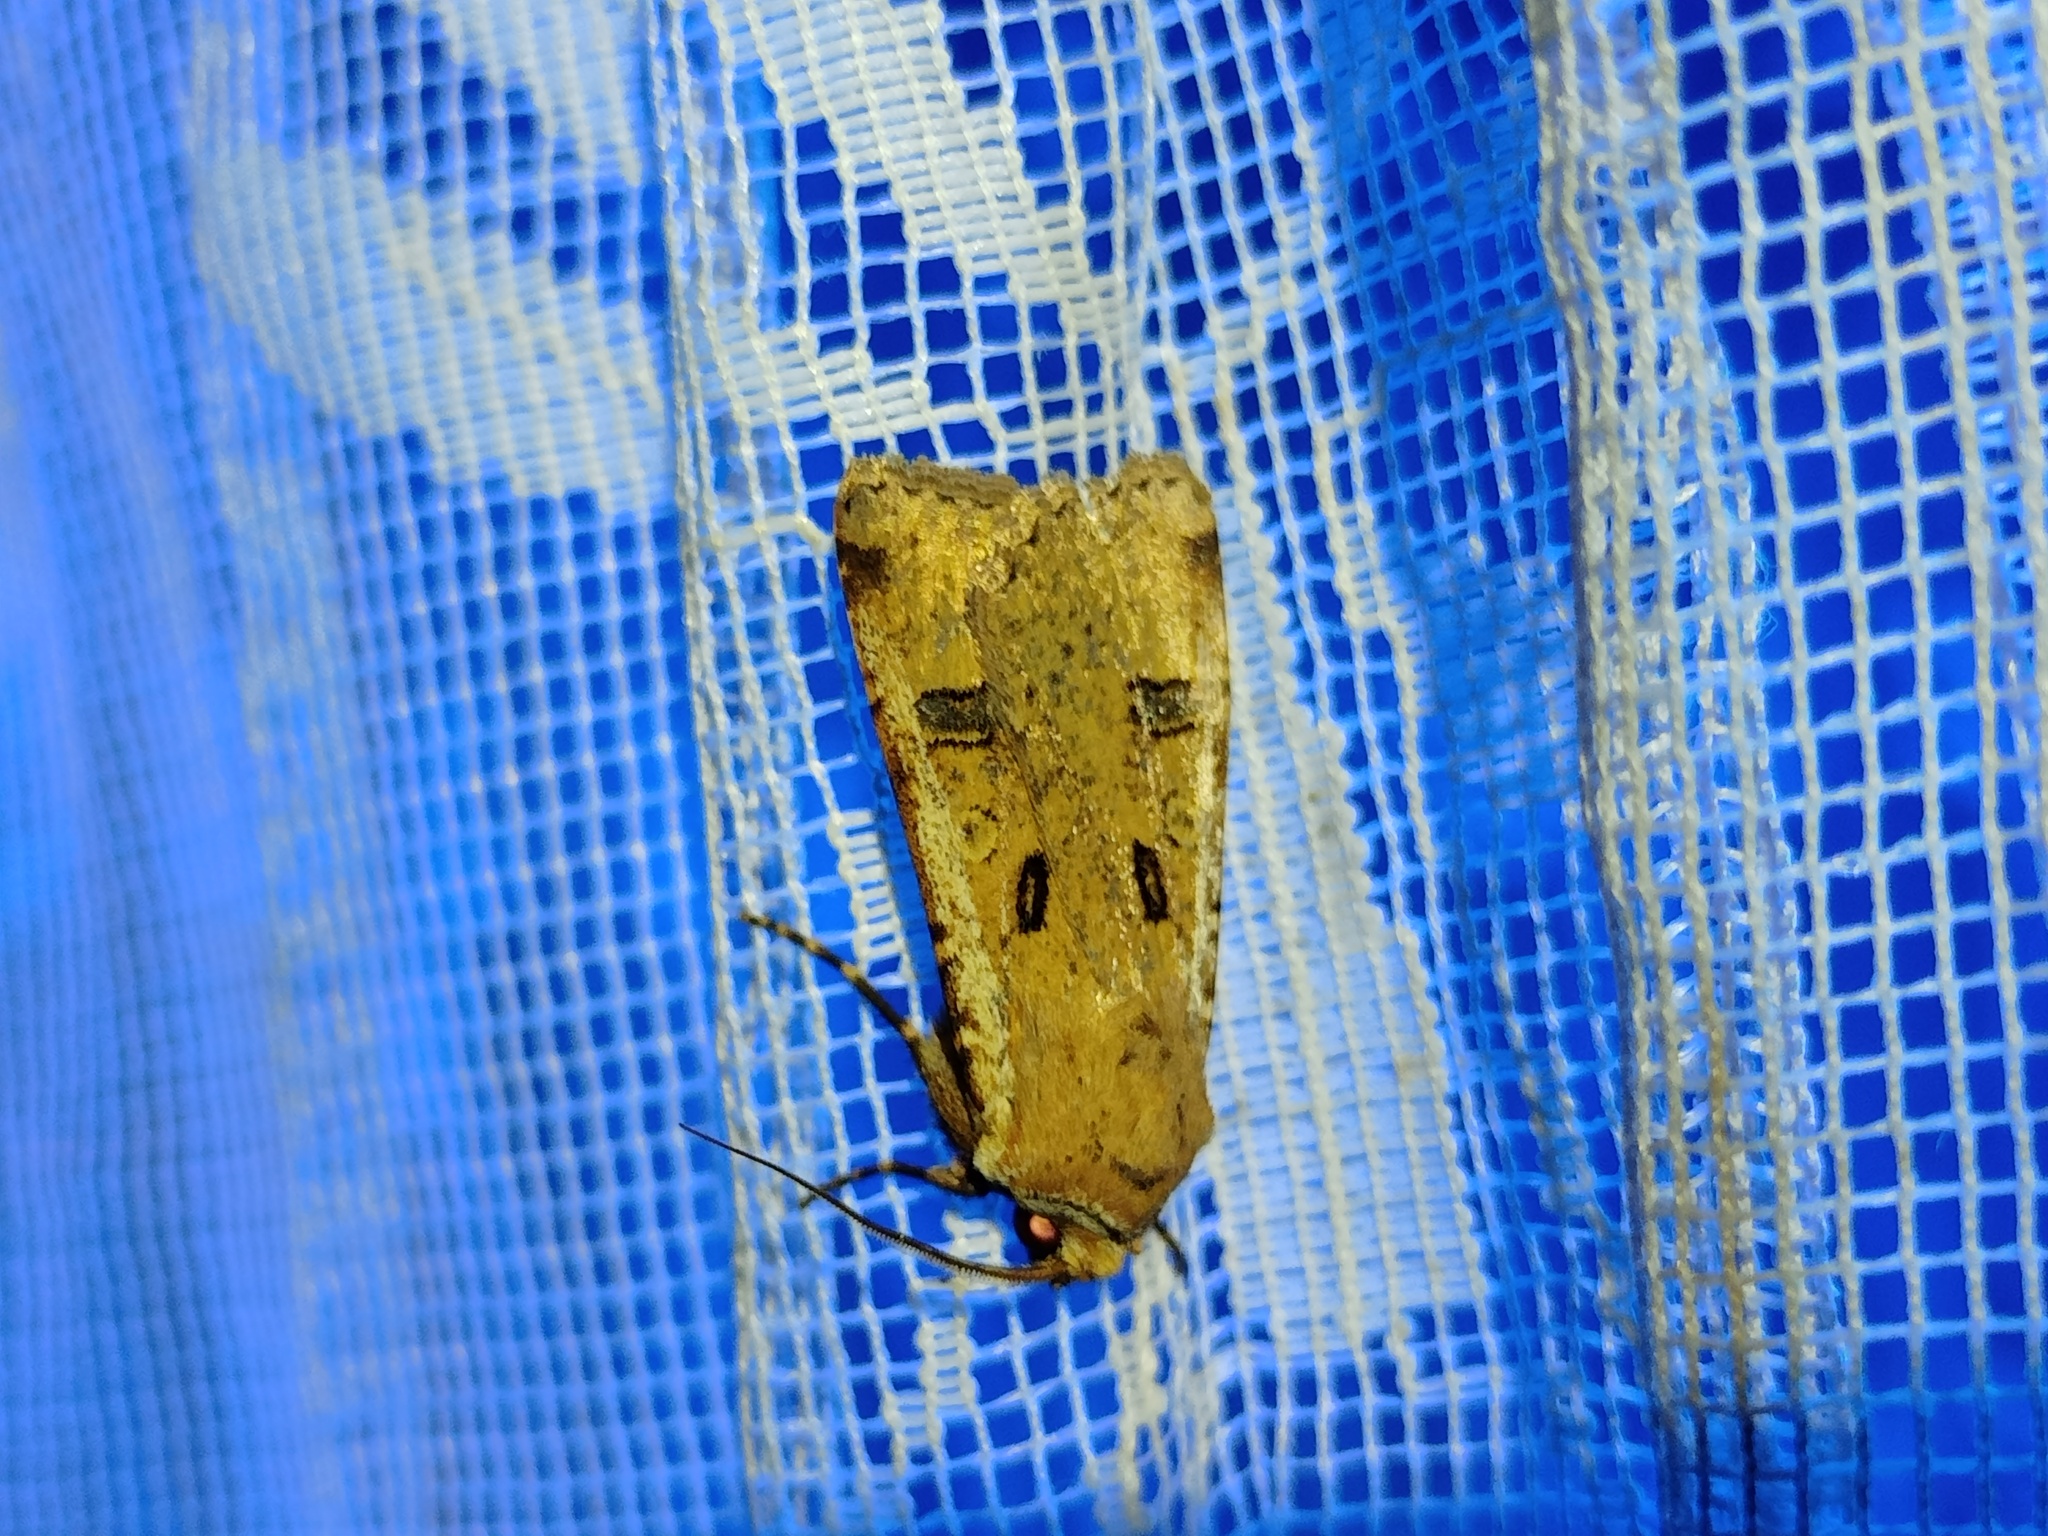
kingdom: Animalia
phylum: Arthropoda
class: Insecta
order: Lepidoptera
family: Noctuidae
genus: Agrotis
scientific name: Agrotis trux
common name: Crescent dart
